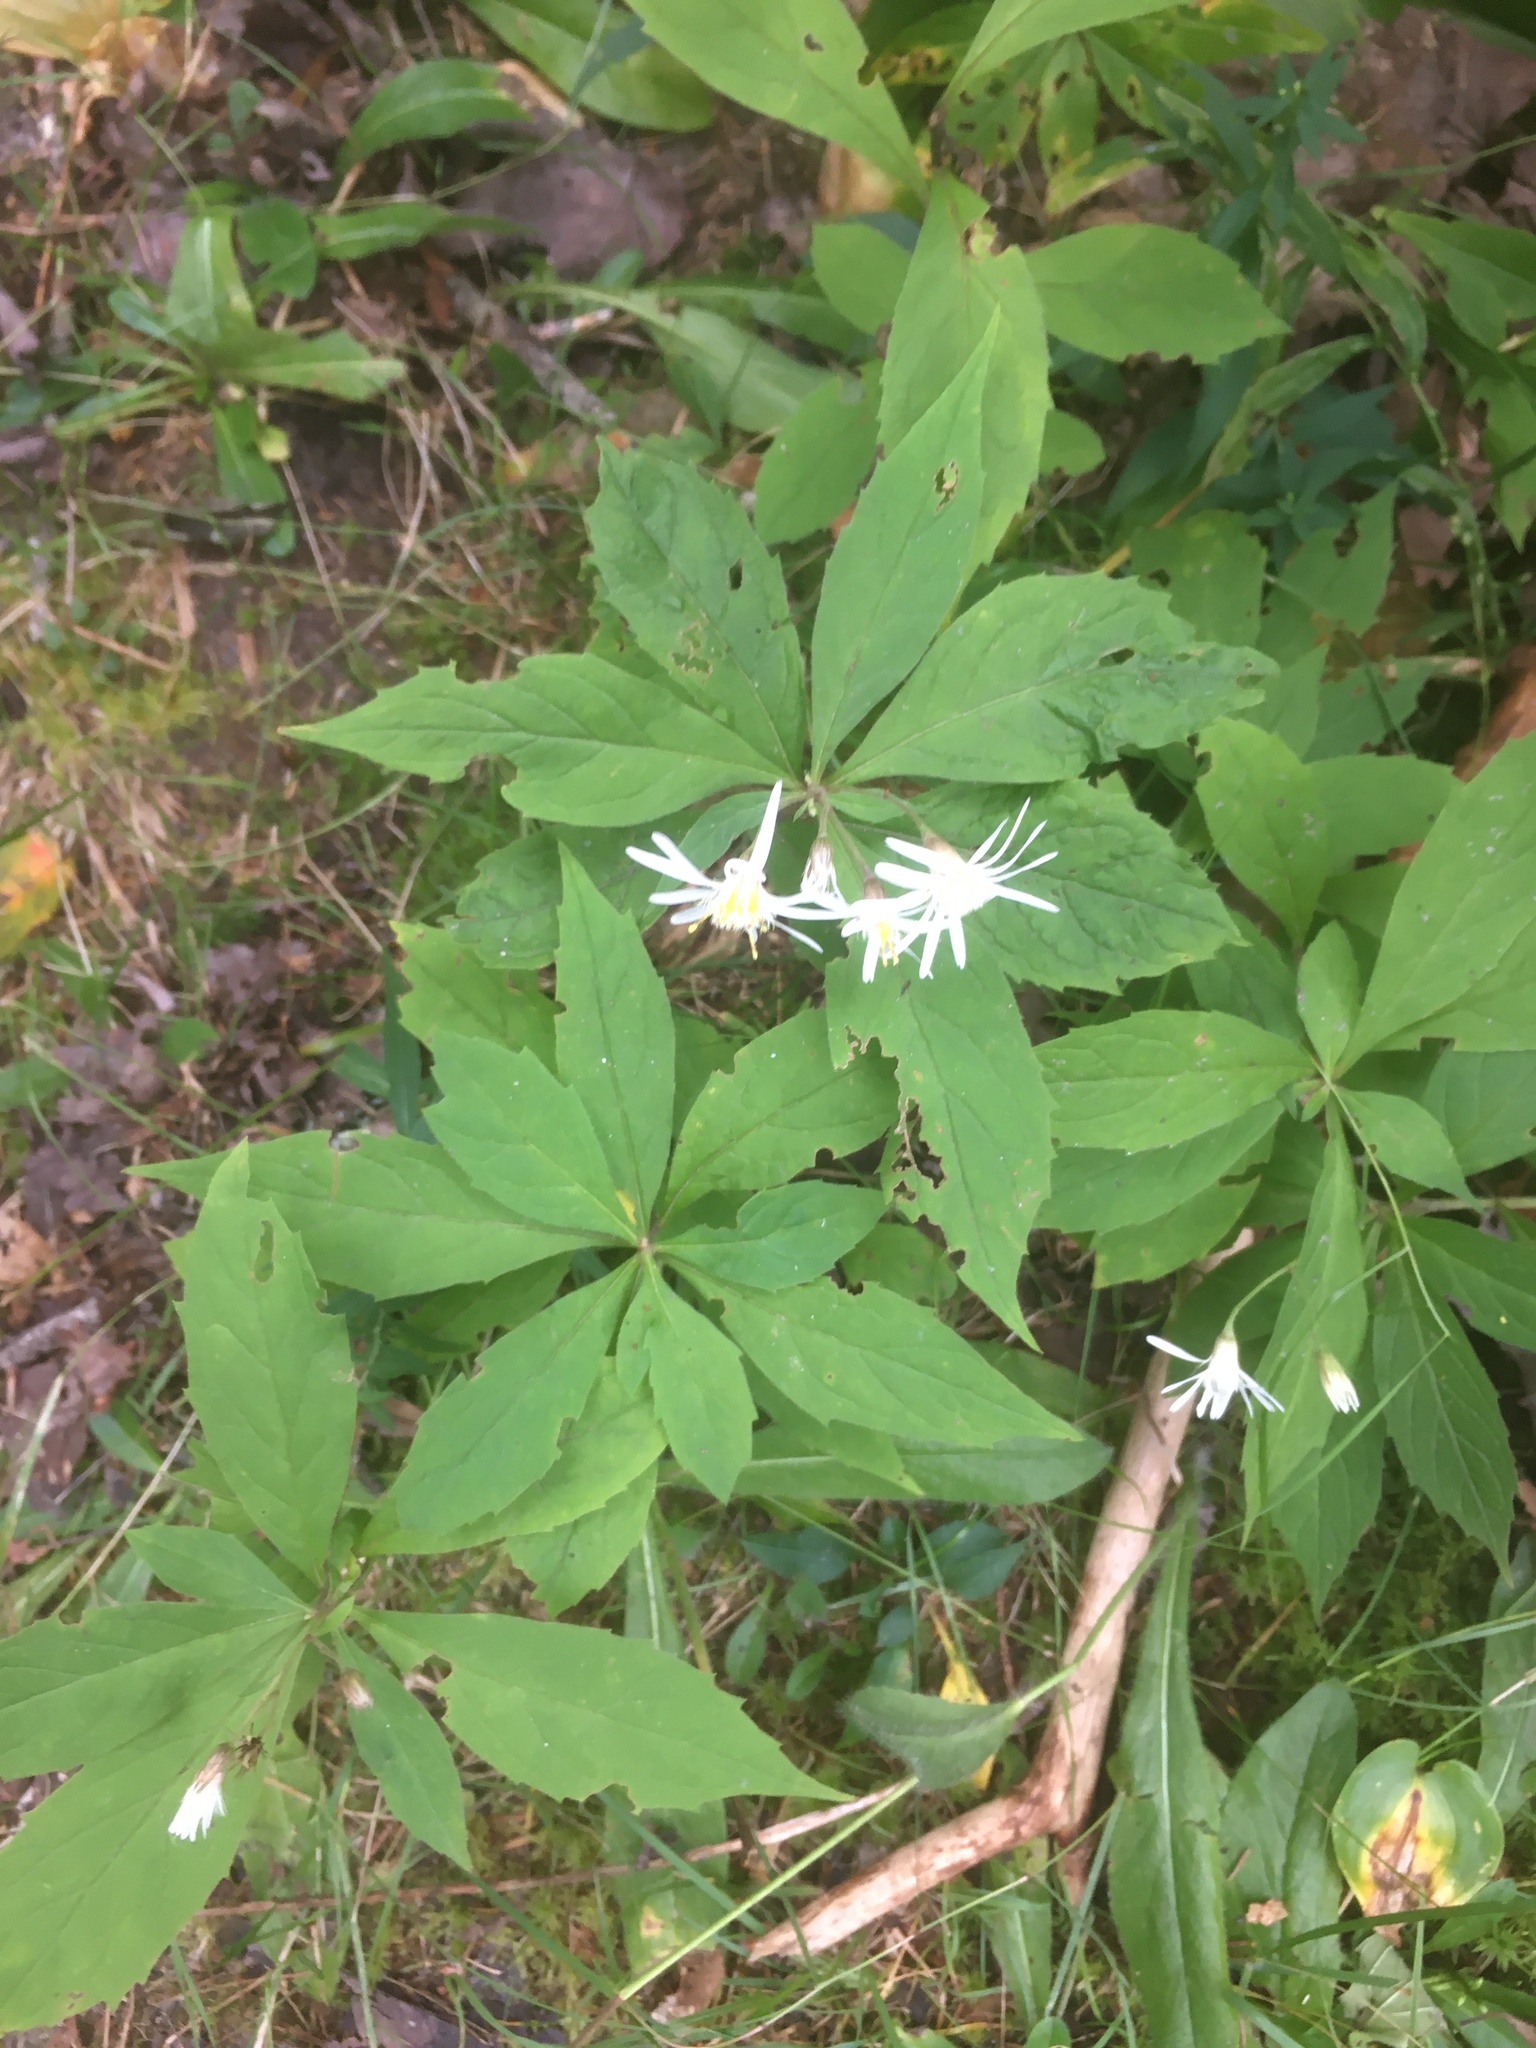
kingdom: Plantae
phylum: Tracheophyta
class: Magnoliopsida
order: Asterales
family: Asteraceae
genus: Oclemena
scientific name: Oclemena acuminata
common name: Mountain aster
